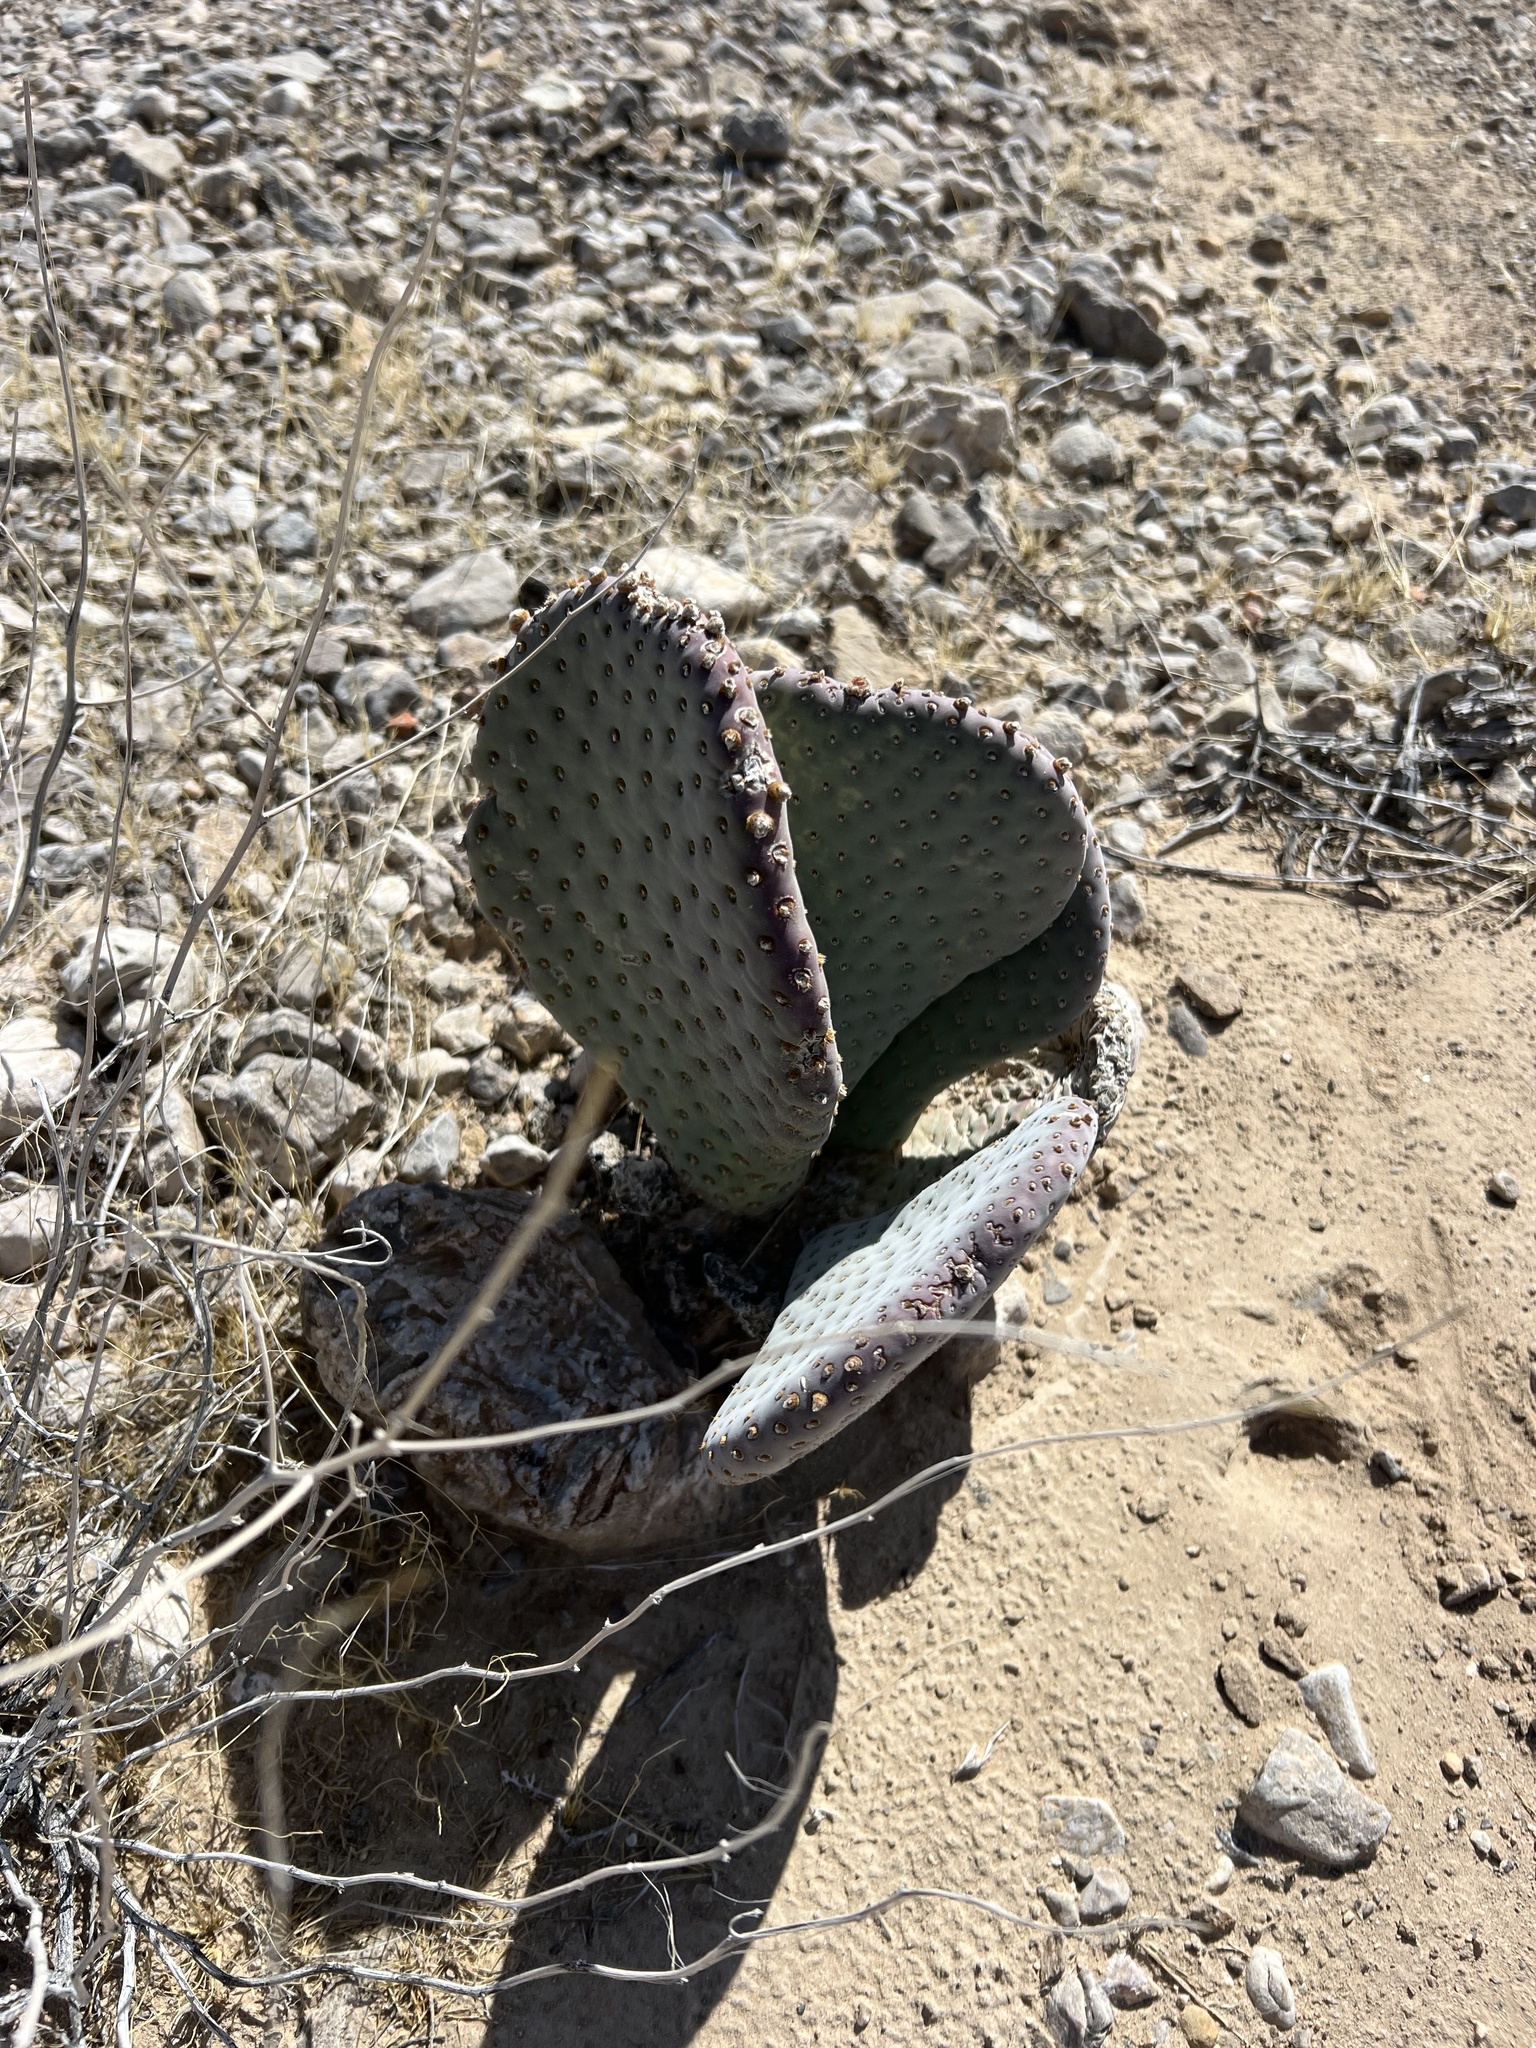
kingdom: Plantae
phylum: Tracheophyta
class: Magnoliopsida
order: Caryophyllales
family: Cactaceae
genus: Opuntia
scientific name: Opuntia basilaris
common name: Beavertail prickly-pear
